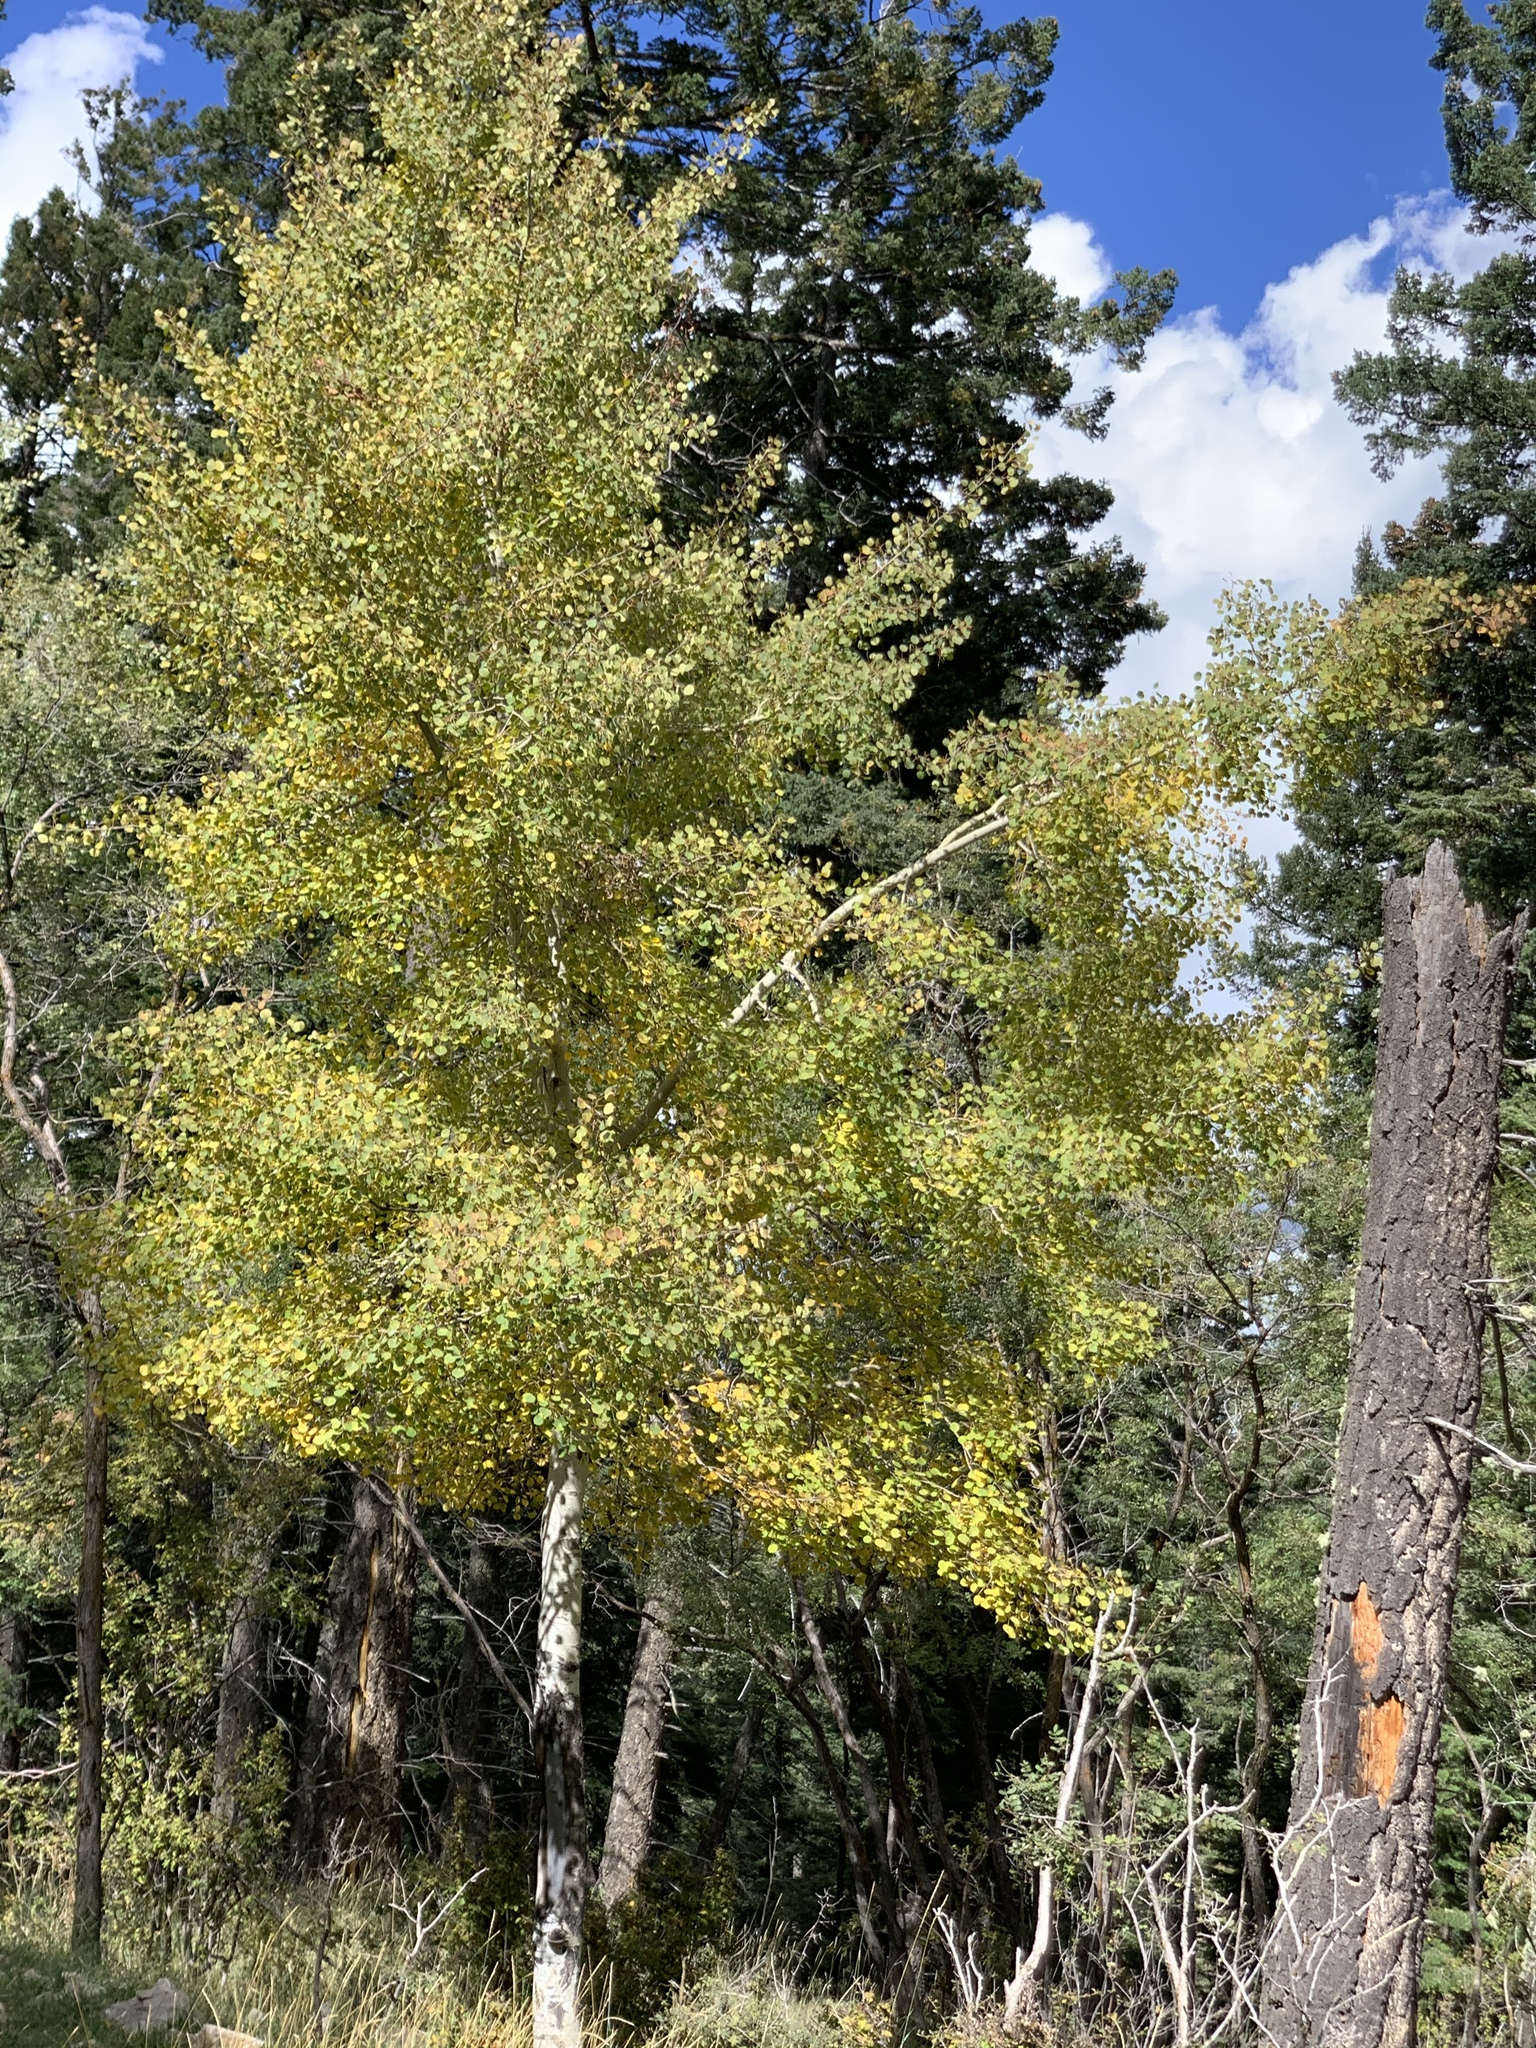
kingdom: Plantae
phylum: Tracheophyta
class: Magnoliopsida
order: Malpighiales
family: Salicaceae
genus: Populus
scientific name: Populus tremuloides
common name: Quaking aspen
